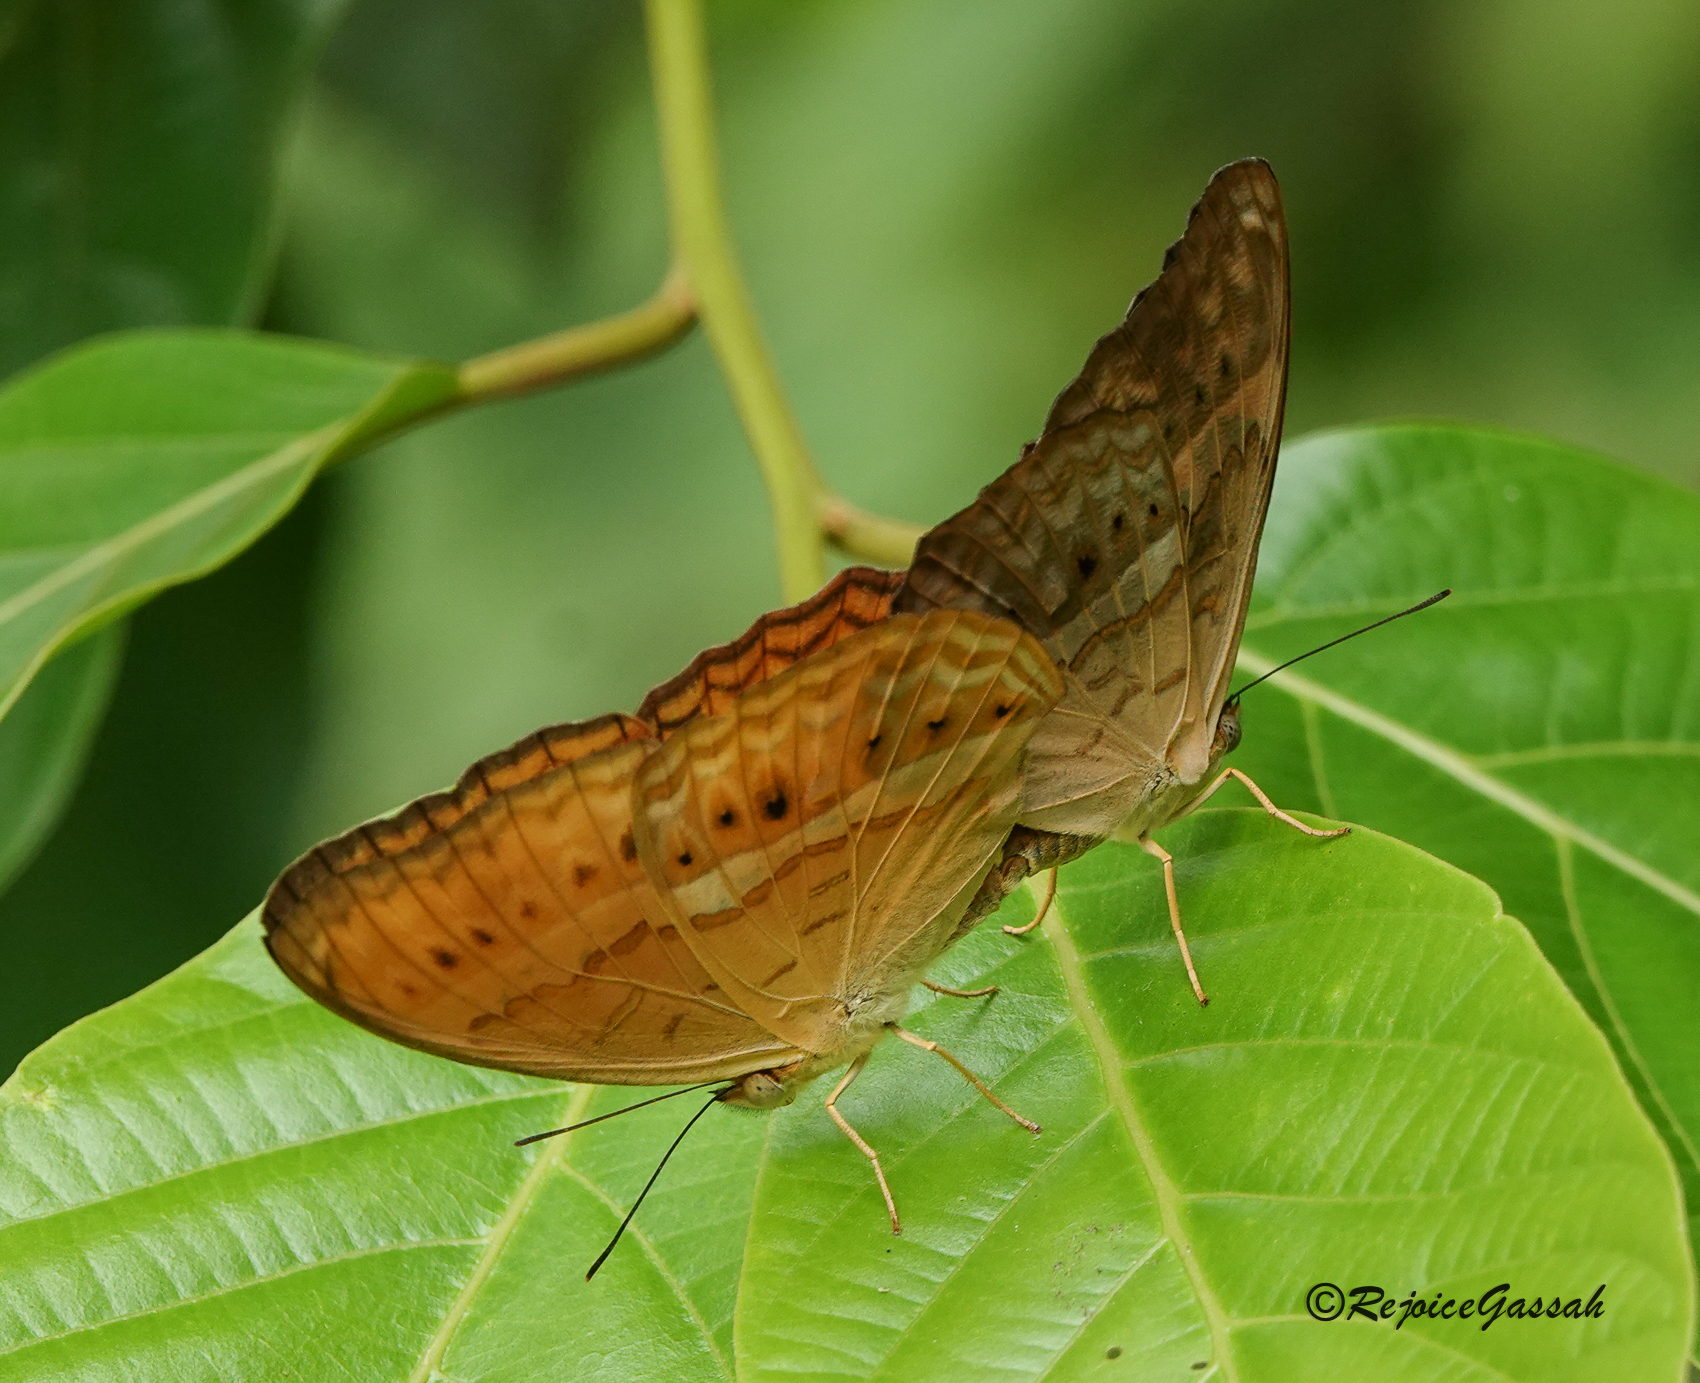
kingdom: Animalia
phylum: Arthropoda
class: Insecta
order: Lepidoptera
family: Nymphalidae
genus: Cirrochroa
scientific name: Cirrochroa tyche
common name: Common yeoman
